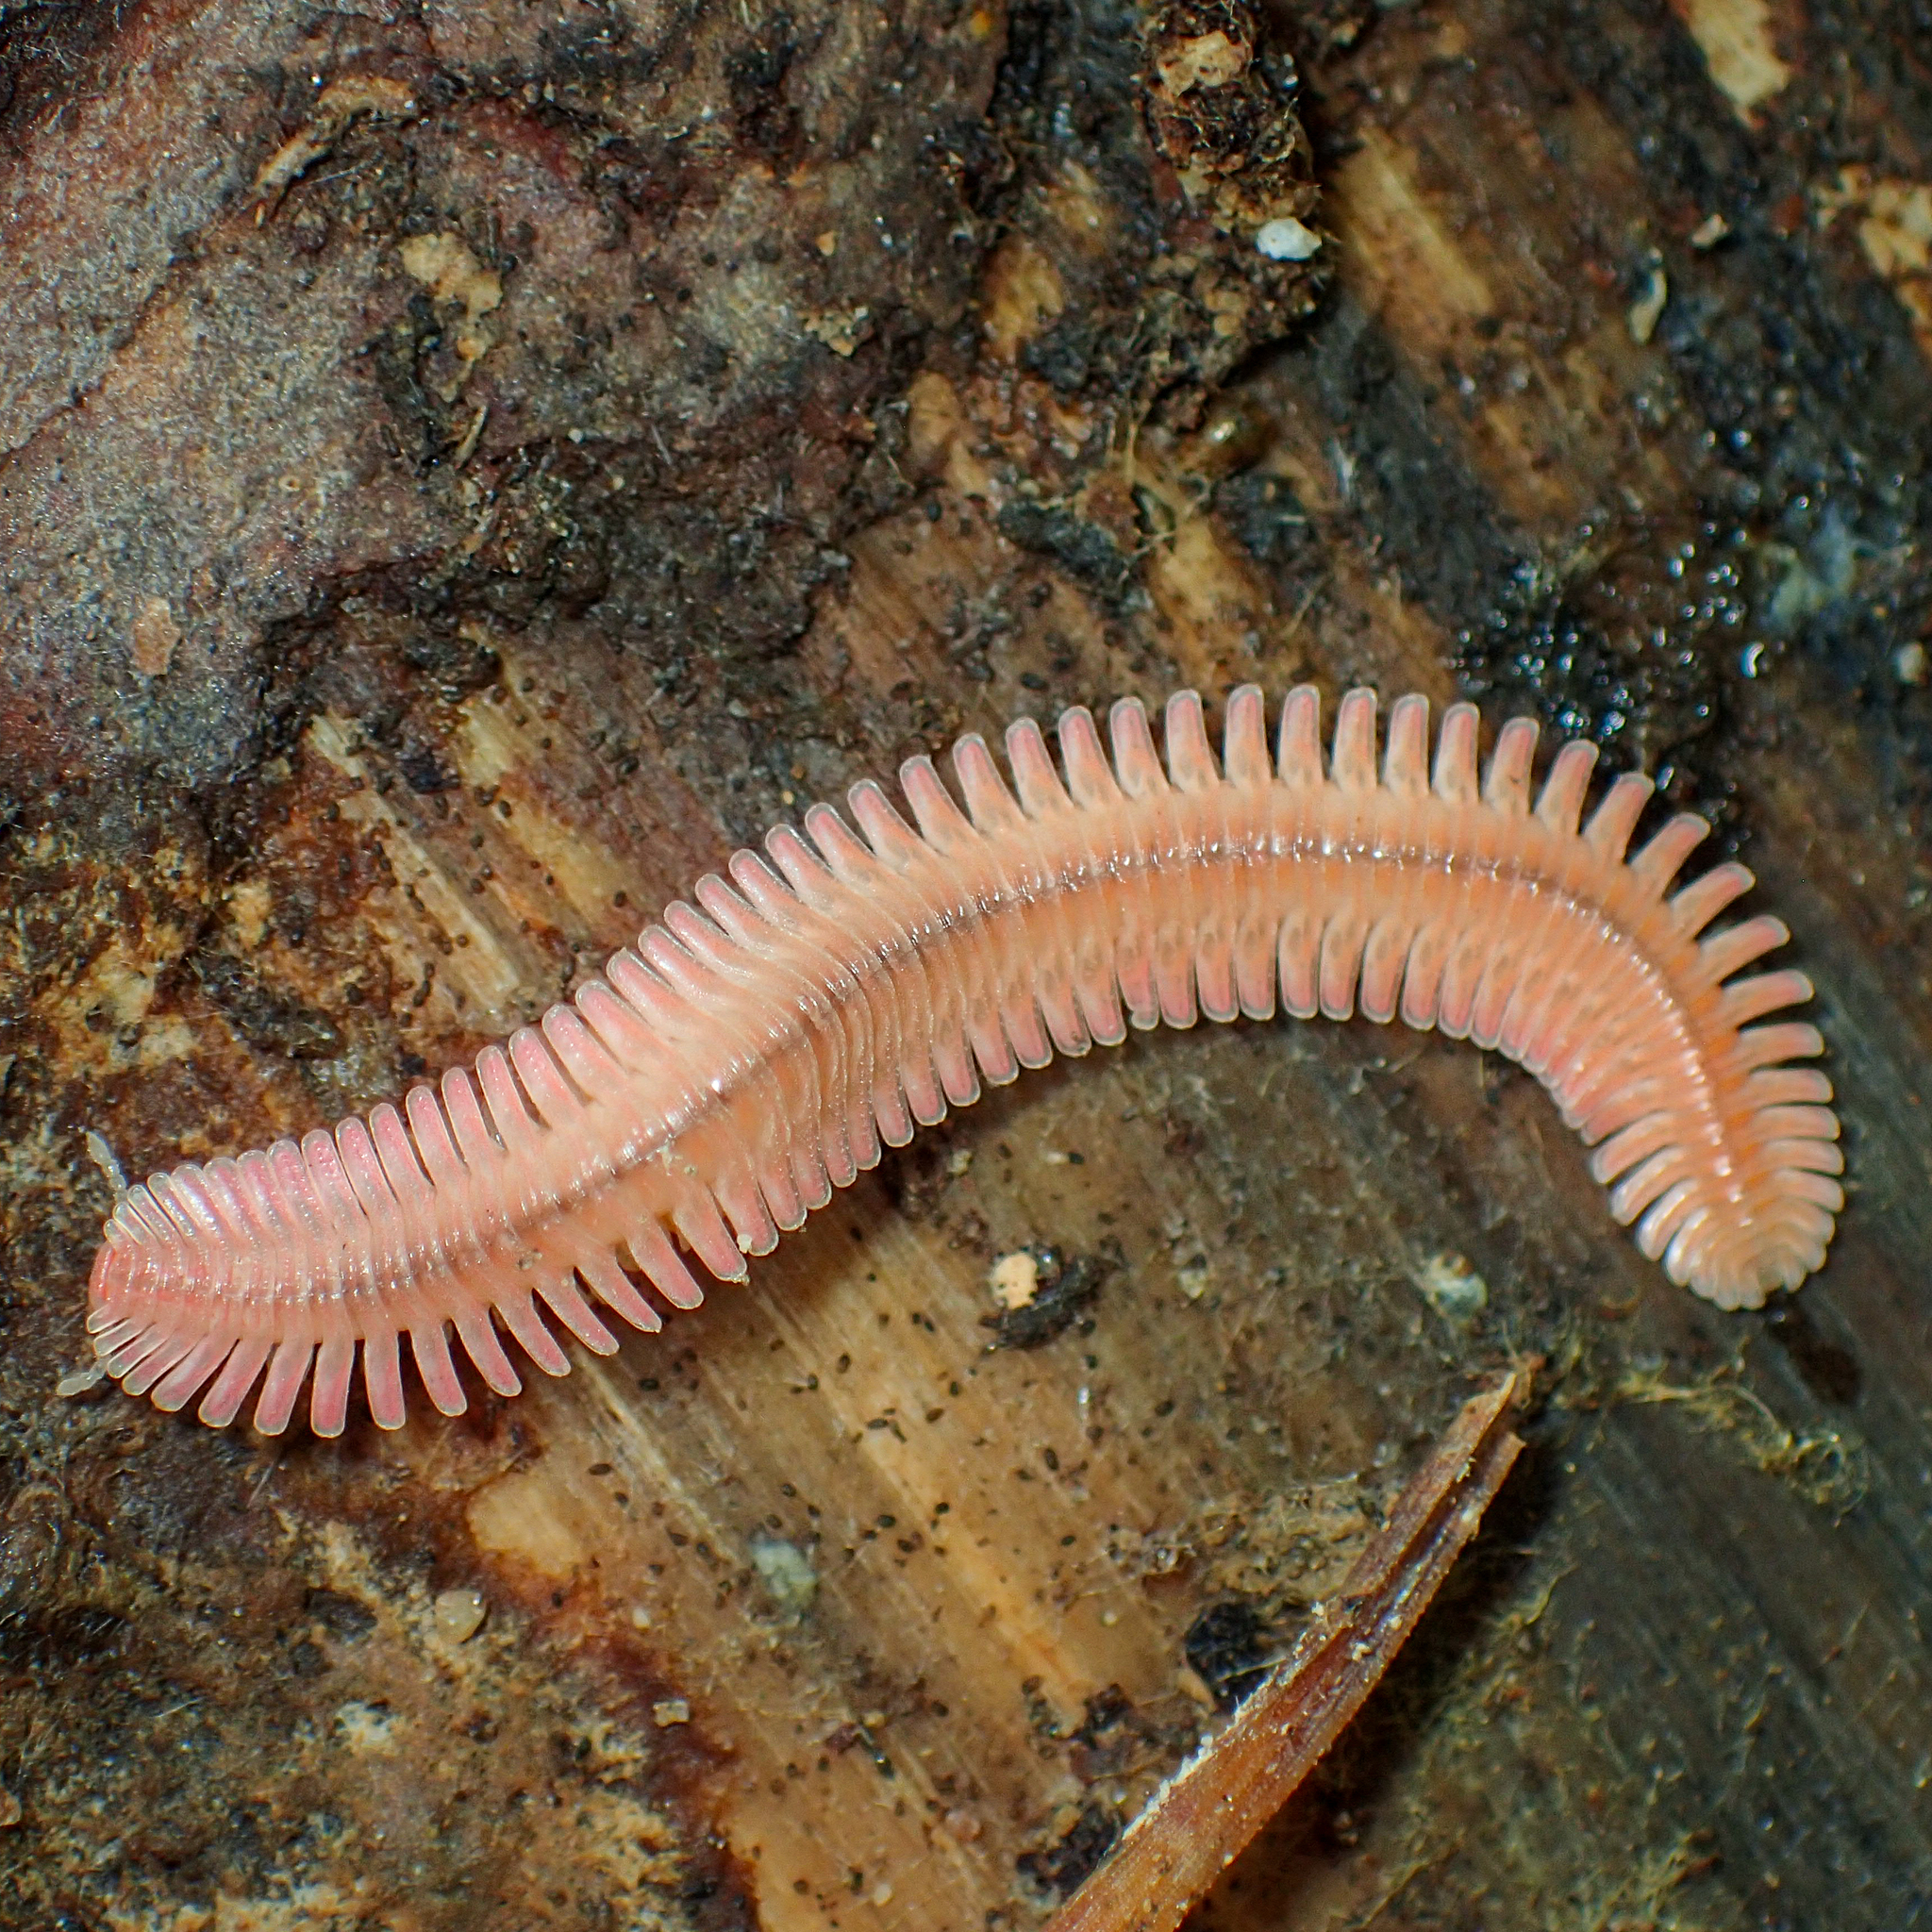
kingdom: Animalia
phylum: Arthropoda
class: Diplopoda
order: Platydesmida
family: Andrognathidae
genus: Brachycybe
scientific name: Brachycybe lecontii
